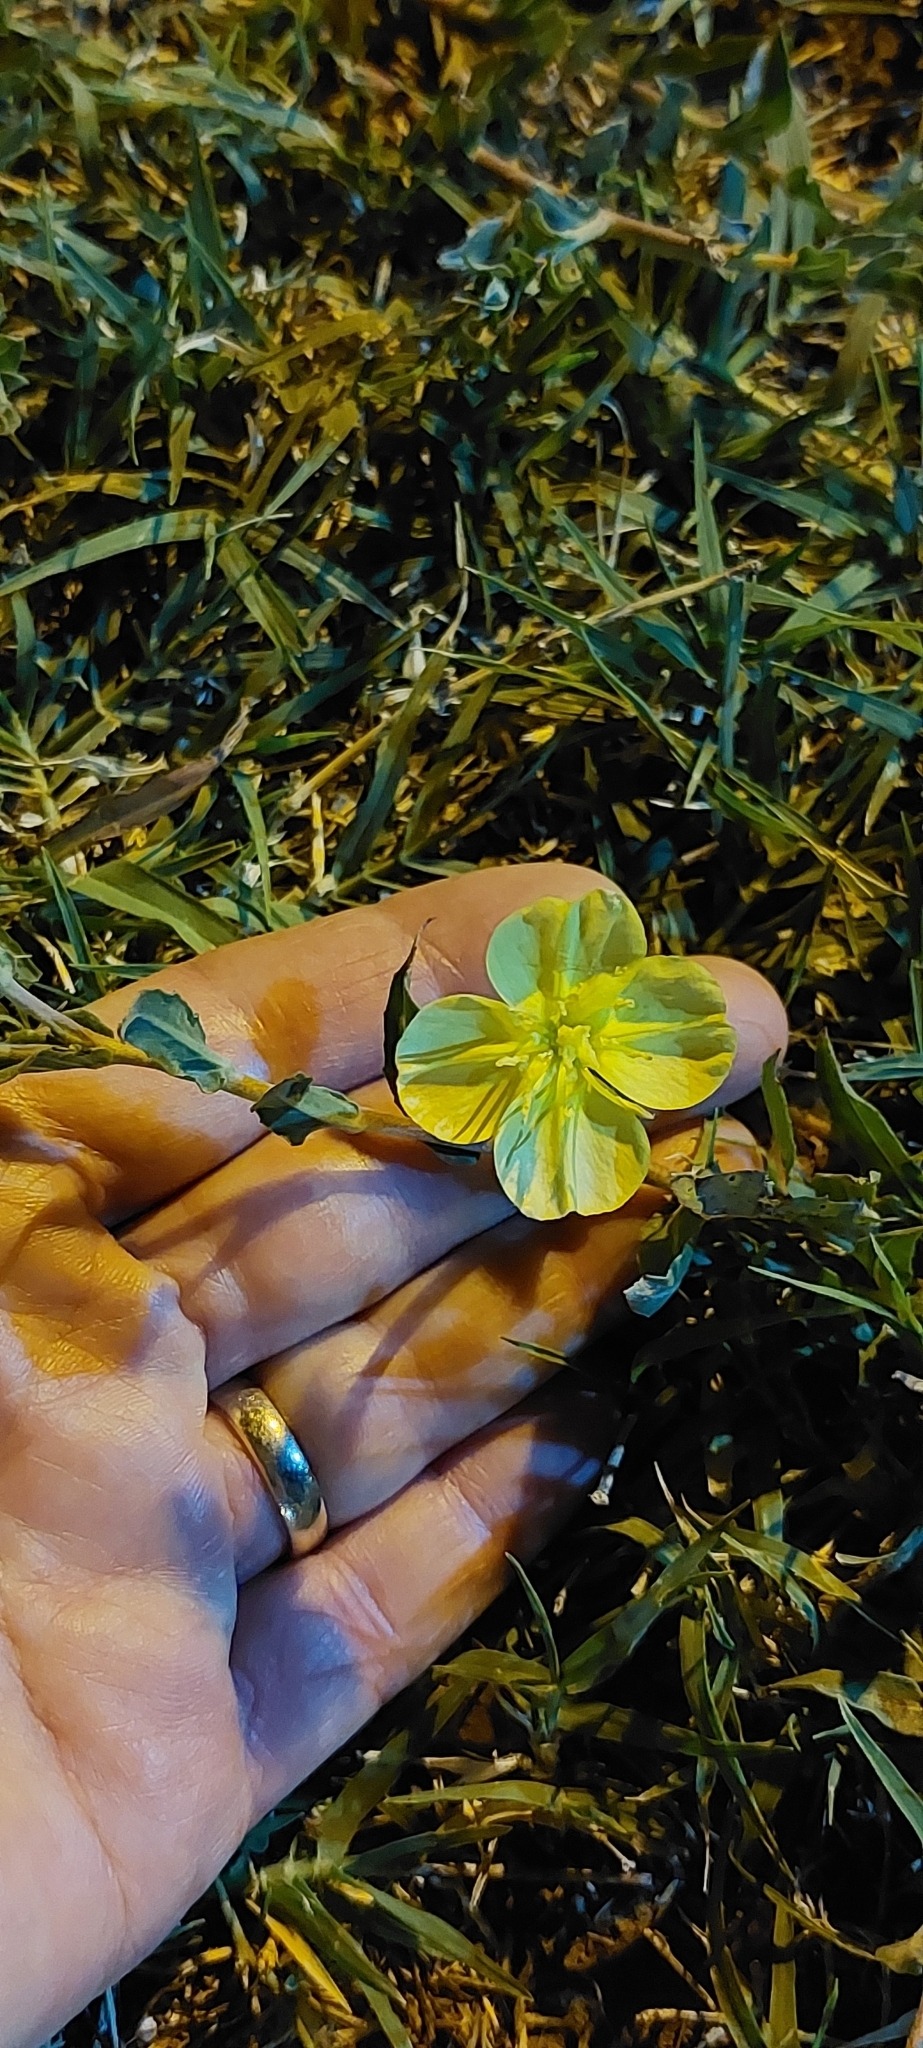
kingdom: Plantae
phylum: Tracheophyta
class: Magnoliopsida
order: Myrtales
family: Onagraceae
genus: Oenothera
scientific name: Oenothera affinis
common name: Longflower evening primrose
